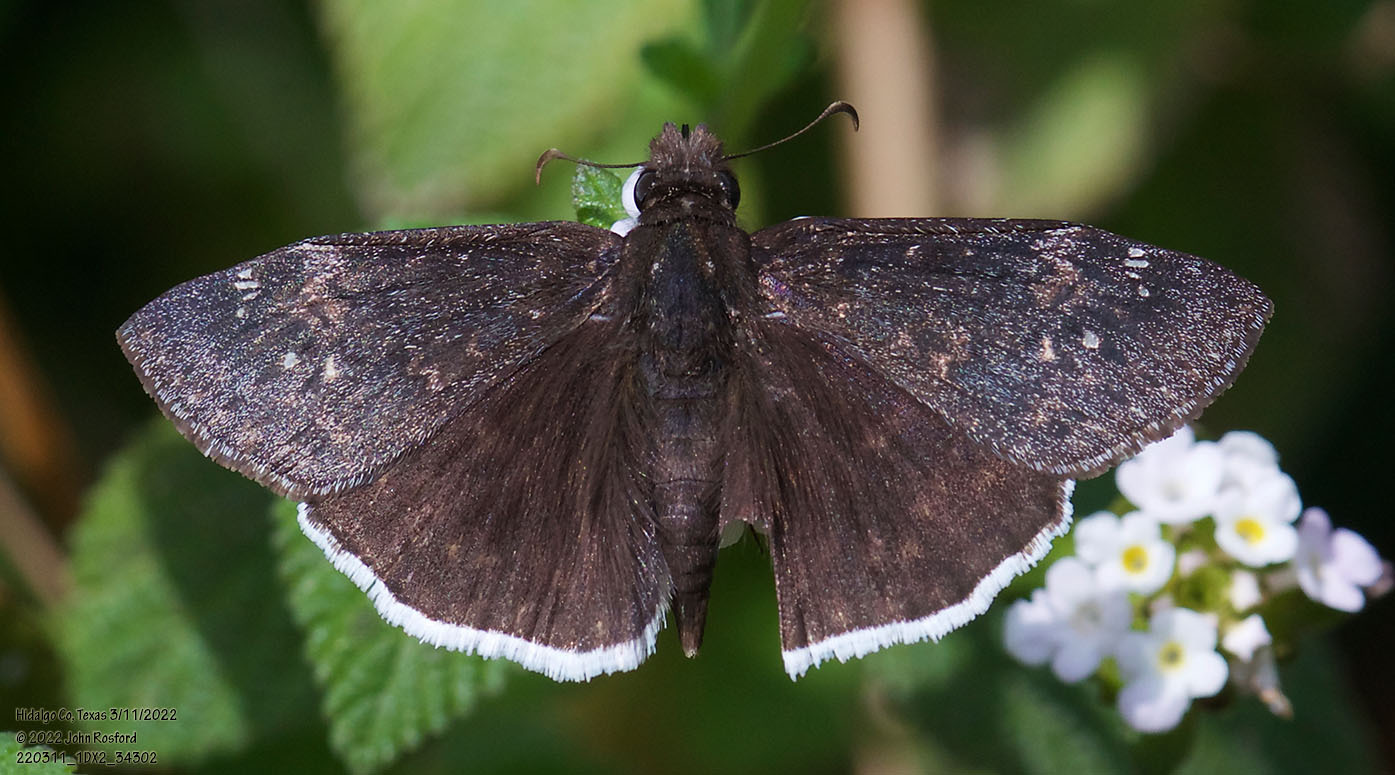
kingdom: Animalia
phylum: Arthropoda
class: Insecta
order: Lepidoptera
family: Hesperiidae
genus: Erynnis
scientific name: Erynnis funeralis
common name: Funereal duskywing
